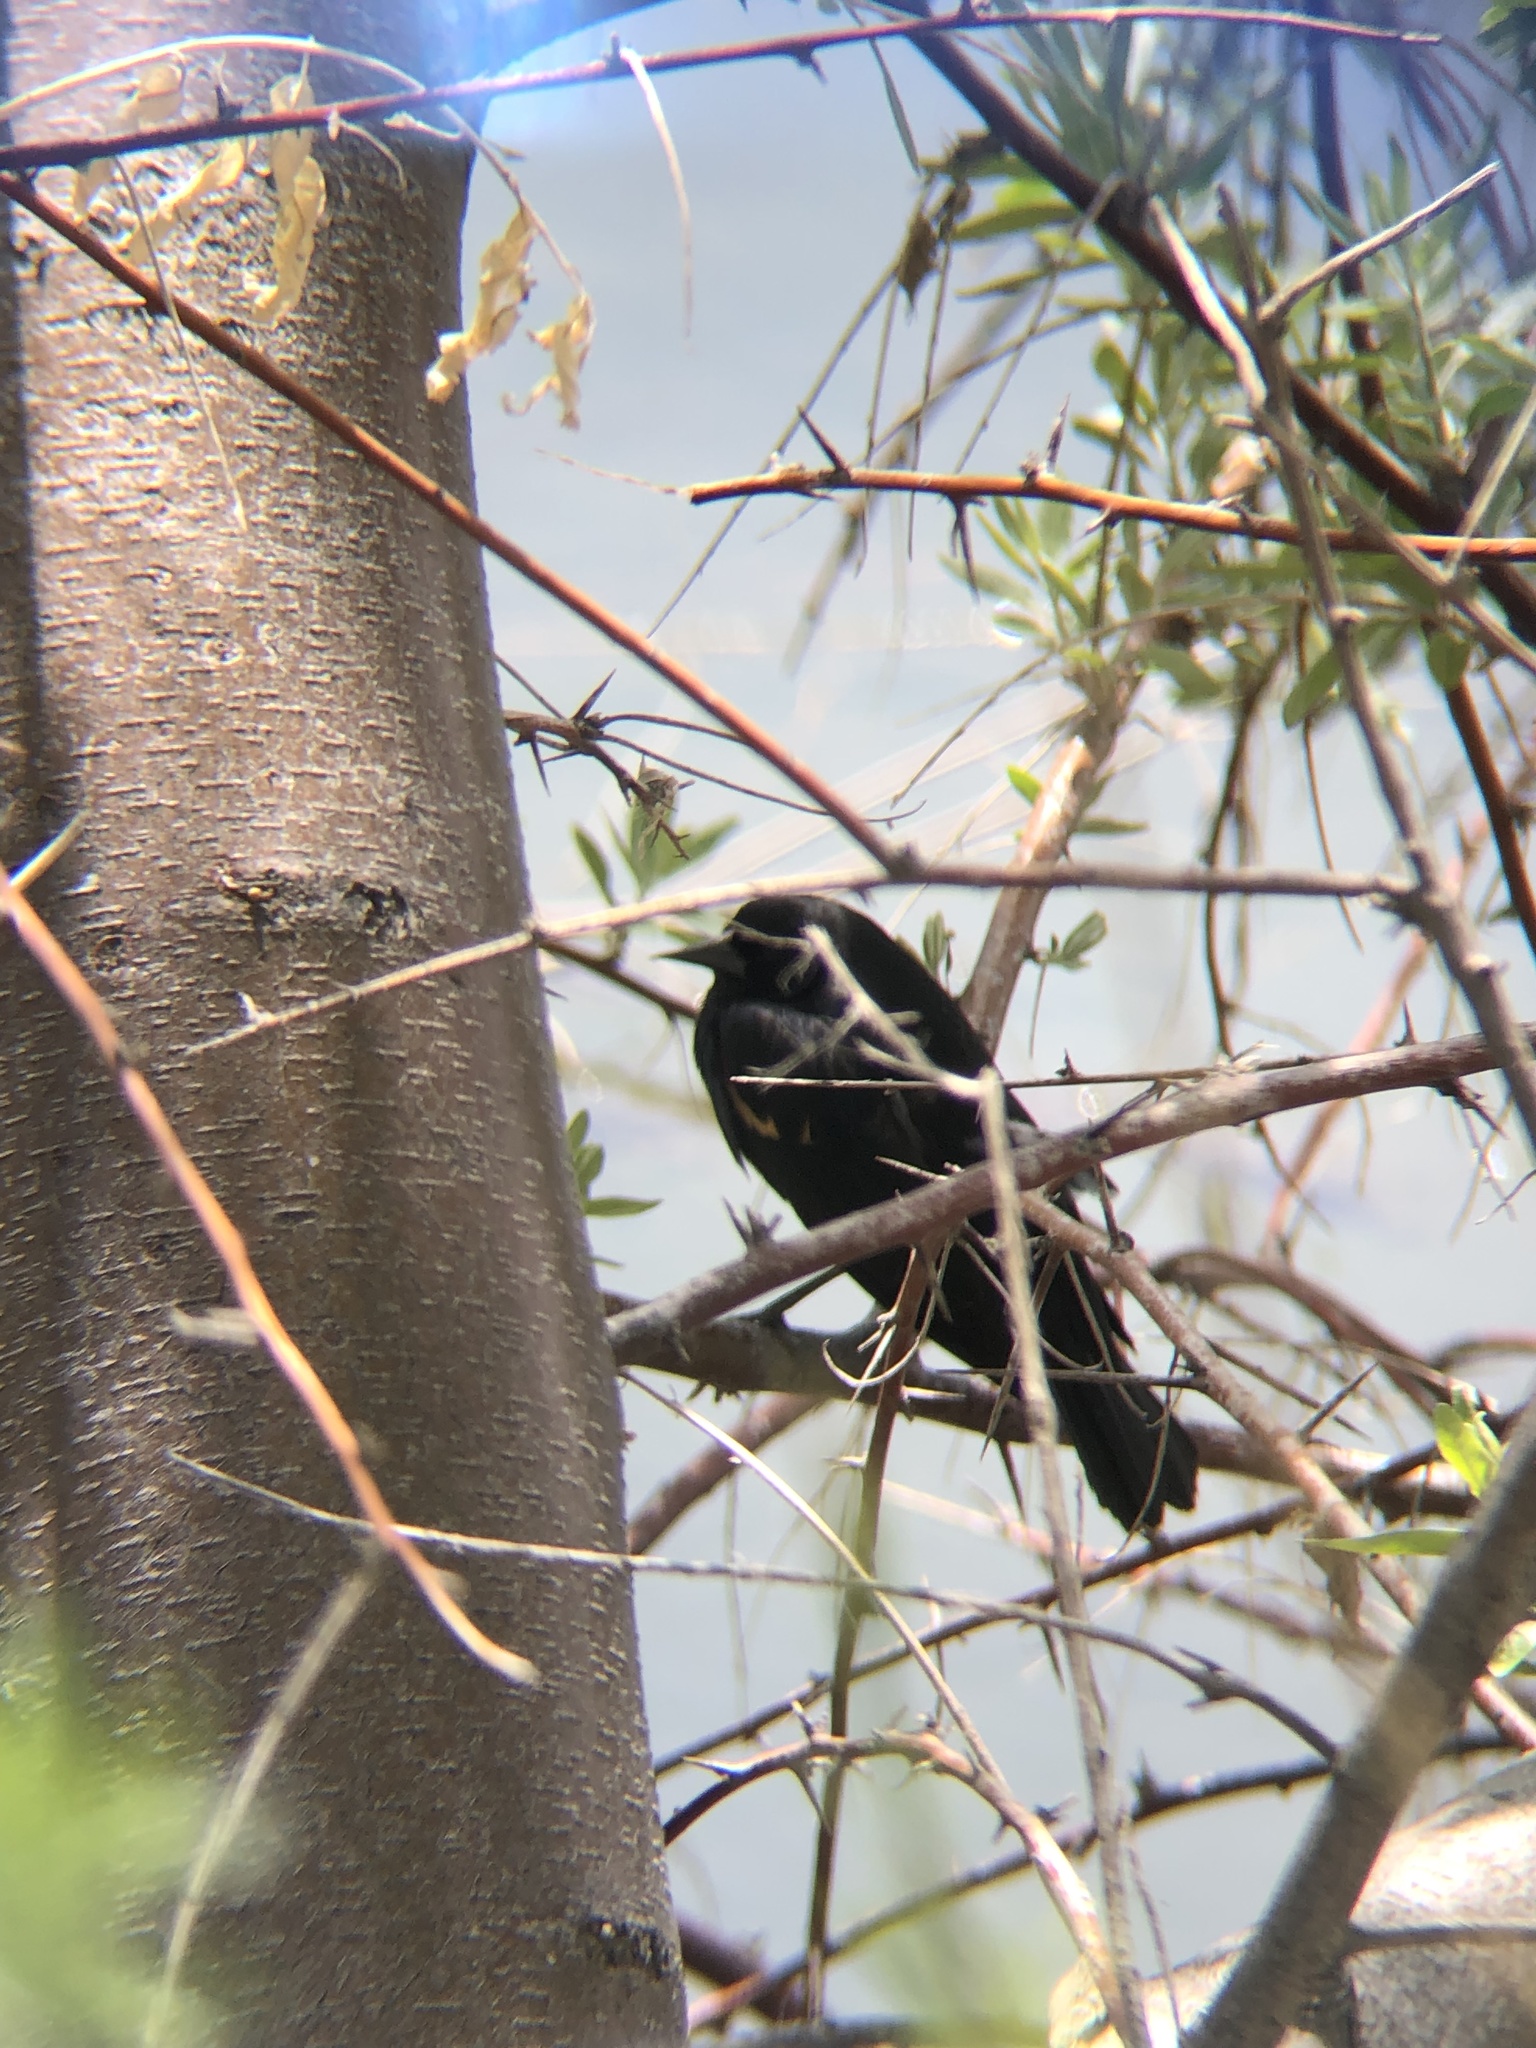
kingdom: Animalia
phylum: Chordata
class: Aves
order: Passeriformes
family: Icteridae
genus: Agelaius
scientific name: Agelaius phoeniceus
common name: Red-winged blackbird
